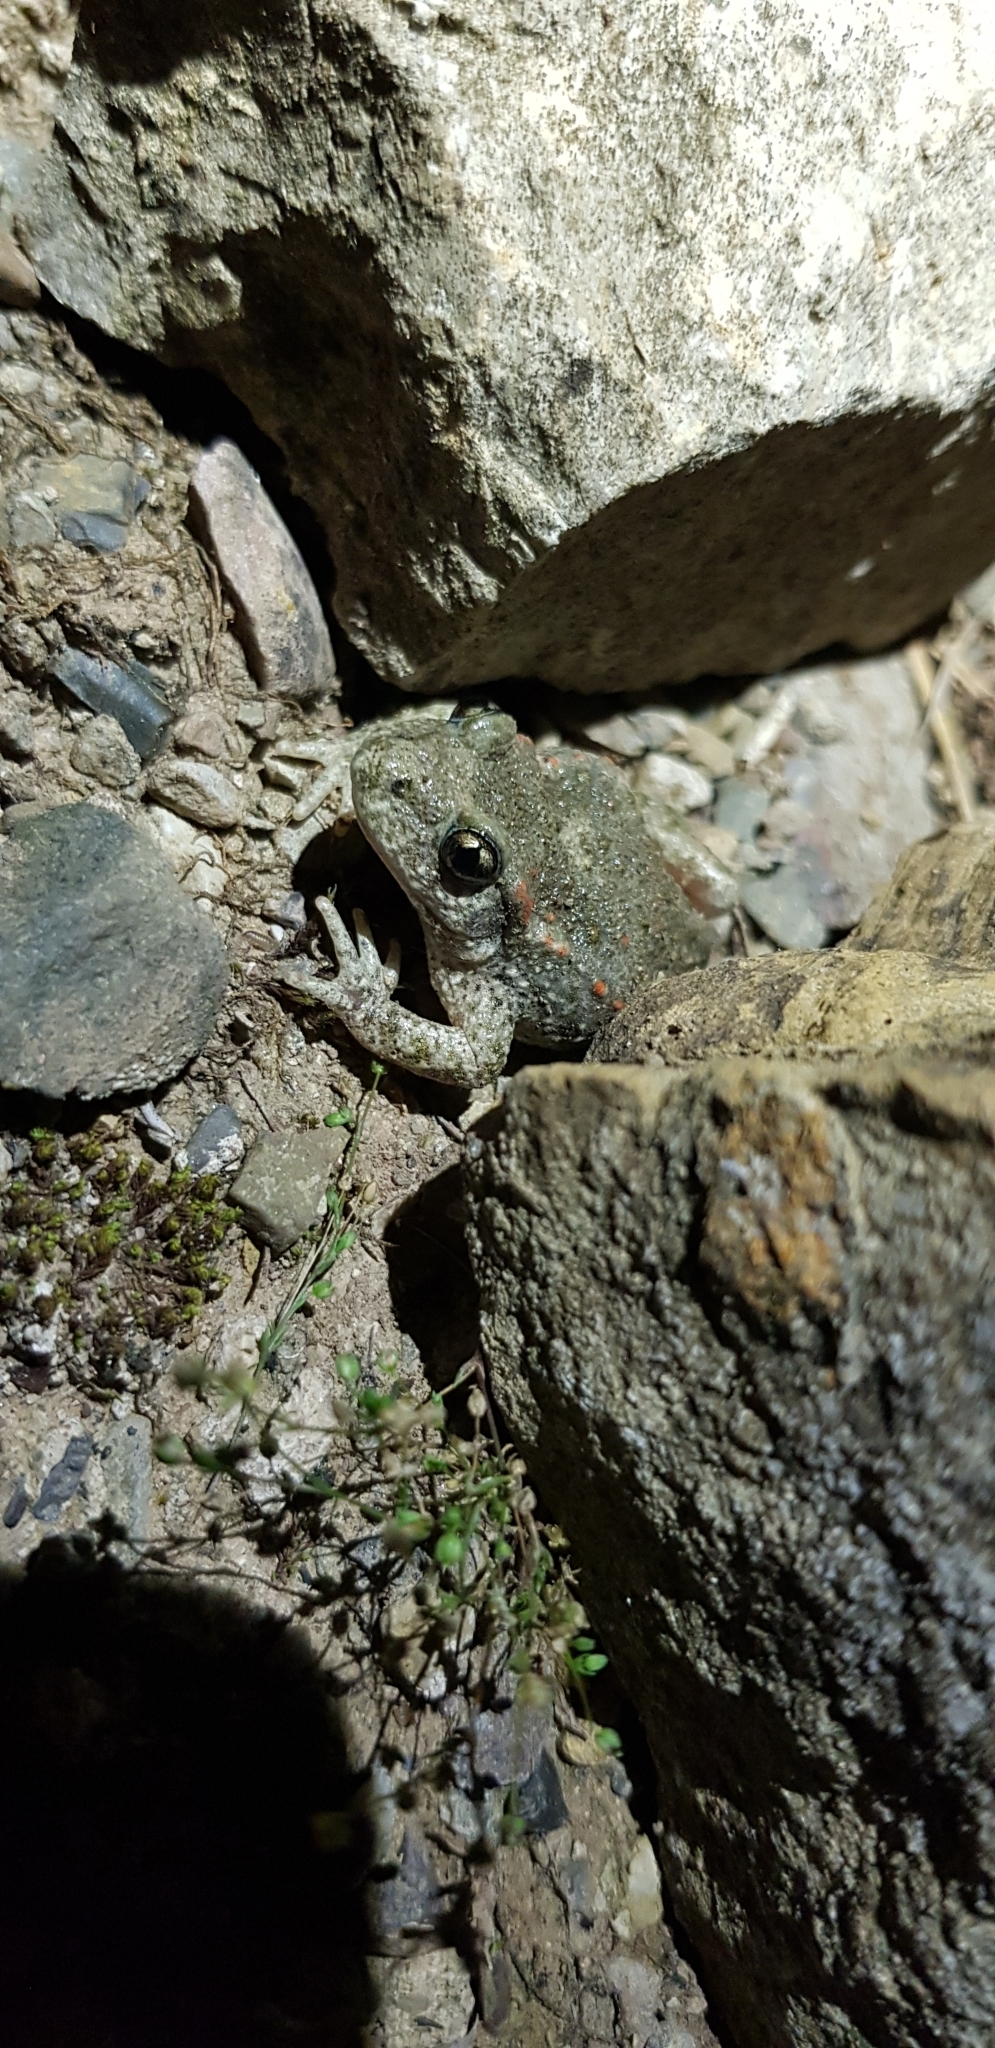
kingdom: Animalia
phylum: Chordata
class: Amphibia
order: Anura
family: Alytidae
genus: Alytes
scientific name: Alytes obstetricans
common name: Midwife toad
